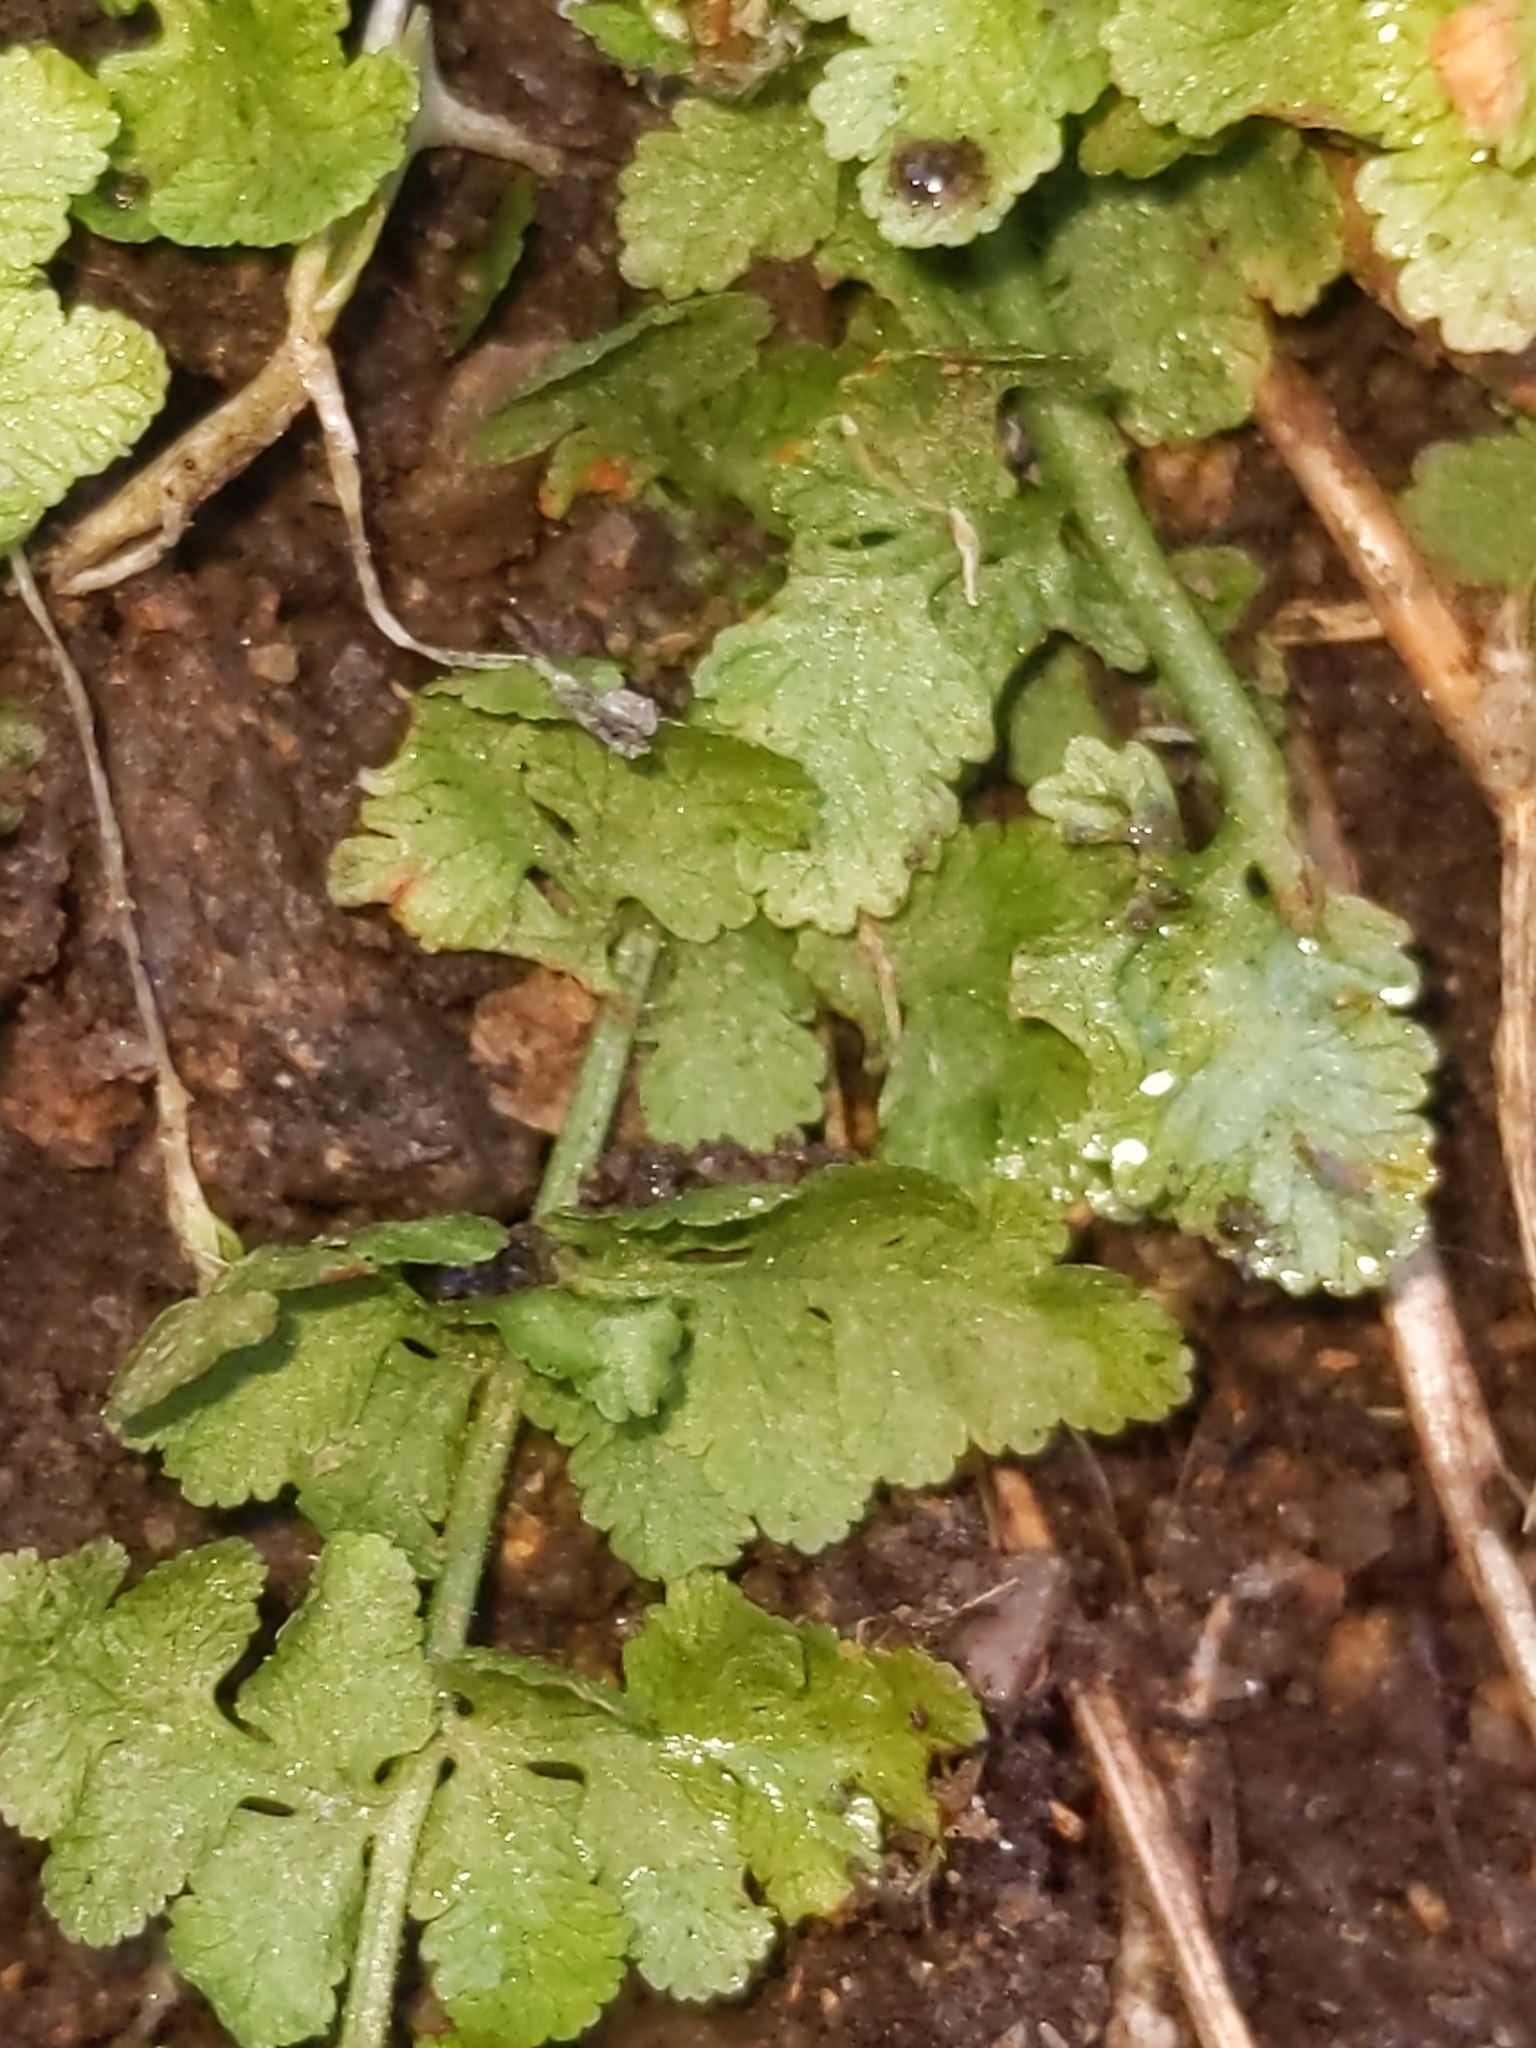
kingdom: Plantae
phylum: Tracheophyta
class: Polypodiopsida
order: Polypodiales
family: Woodsiaceae
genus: Physematium
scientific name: Physematium obtusum
